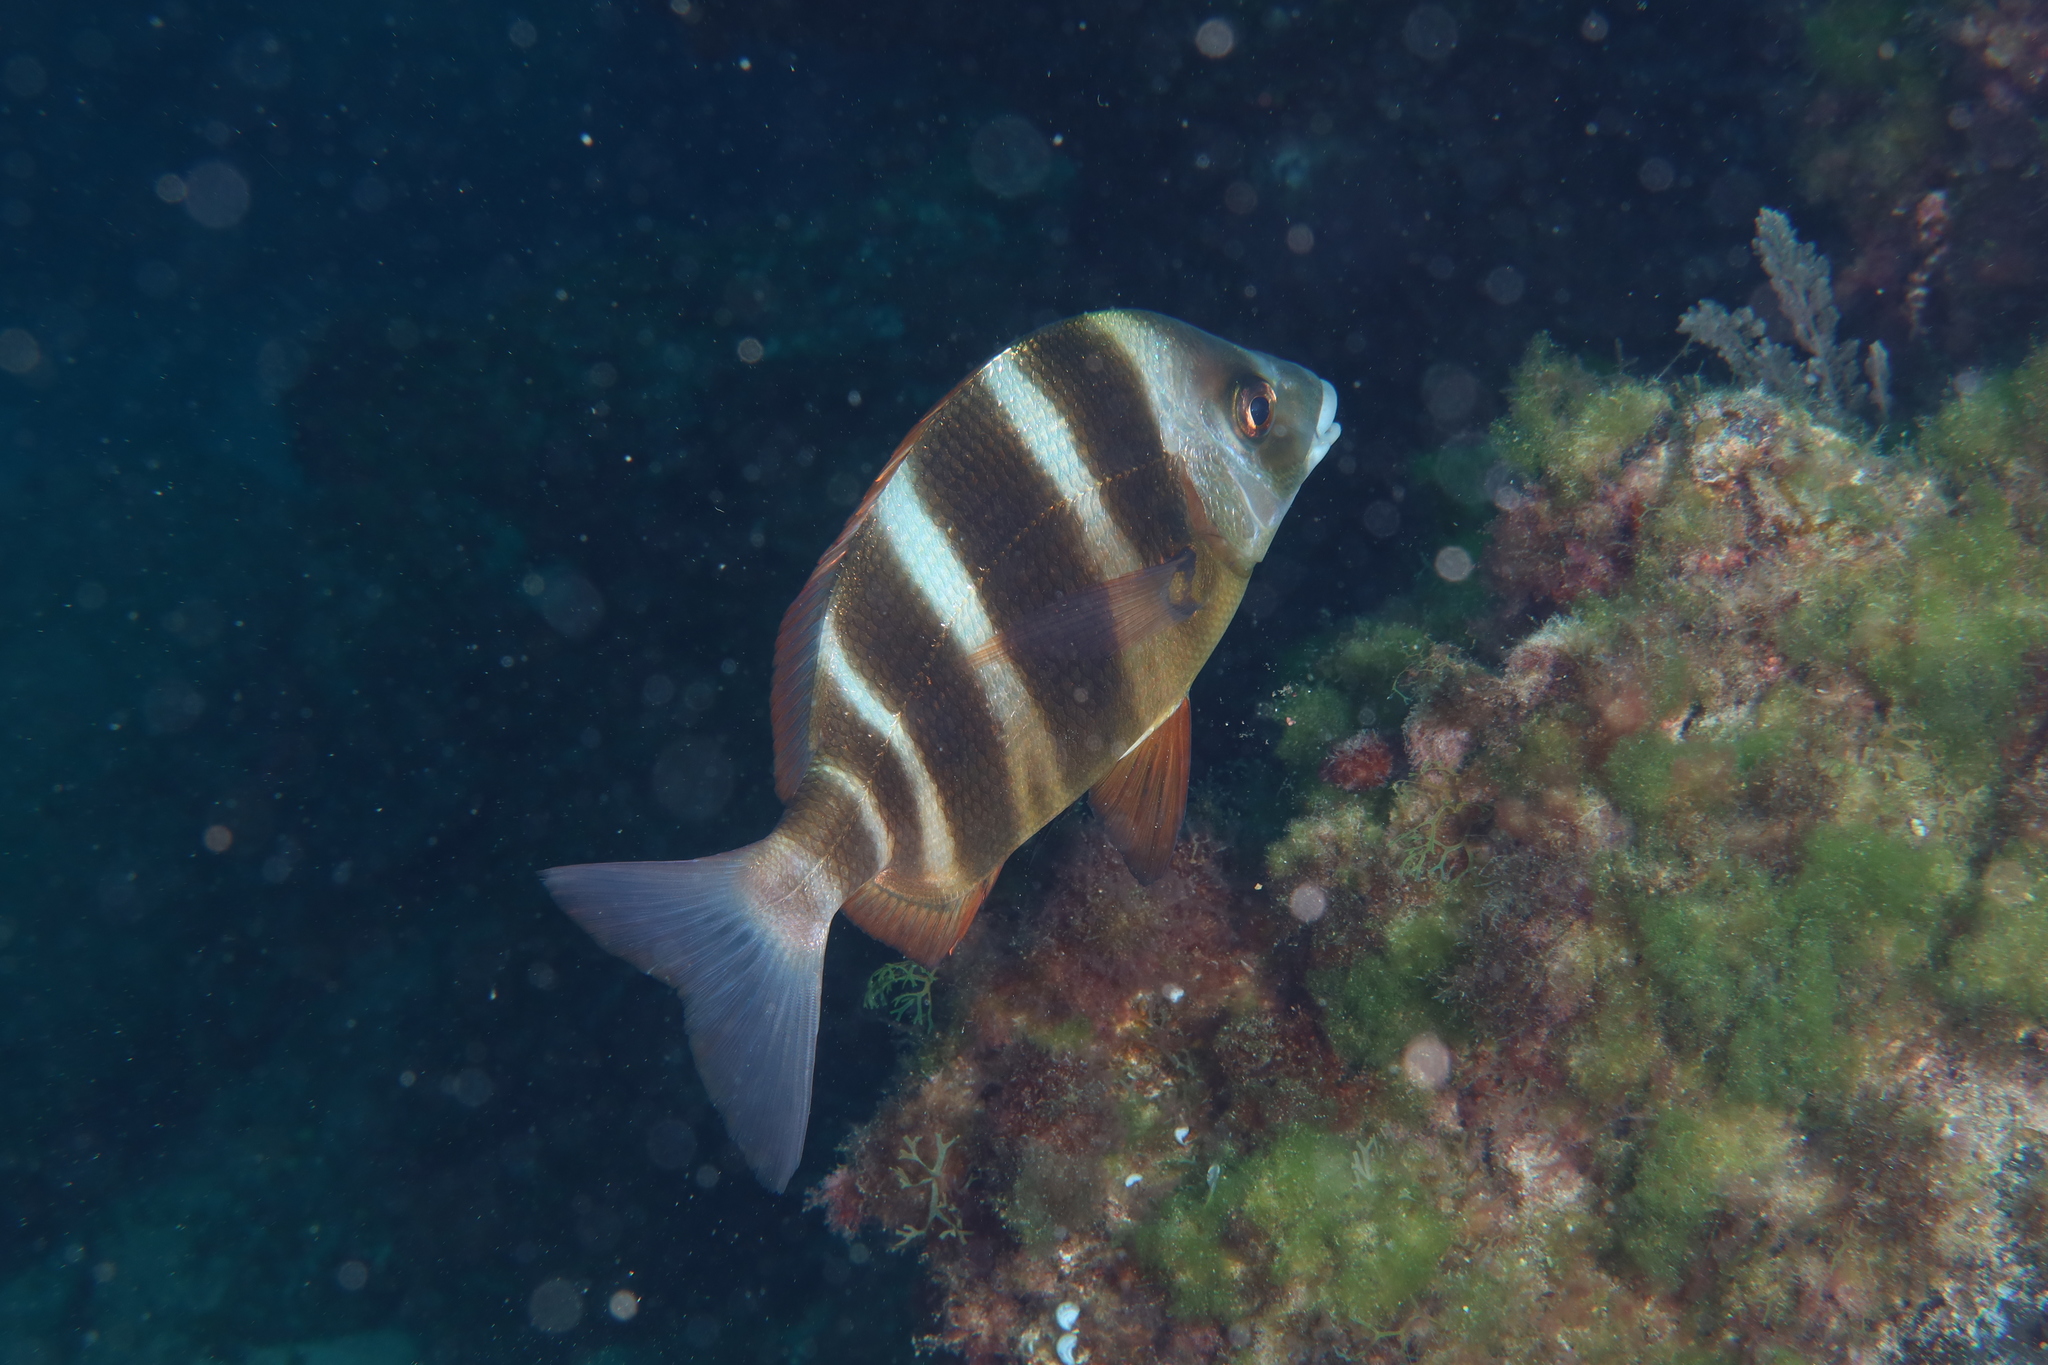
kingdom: Animalia
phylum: Chordata
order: Perciformes
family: Sparidae
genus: Diplodus
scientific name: Diplodus cervinus
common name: Oman porgy
